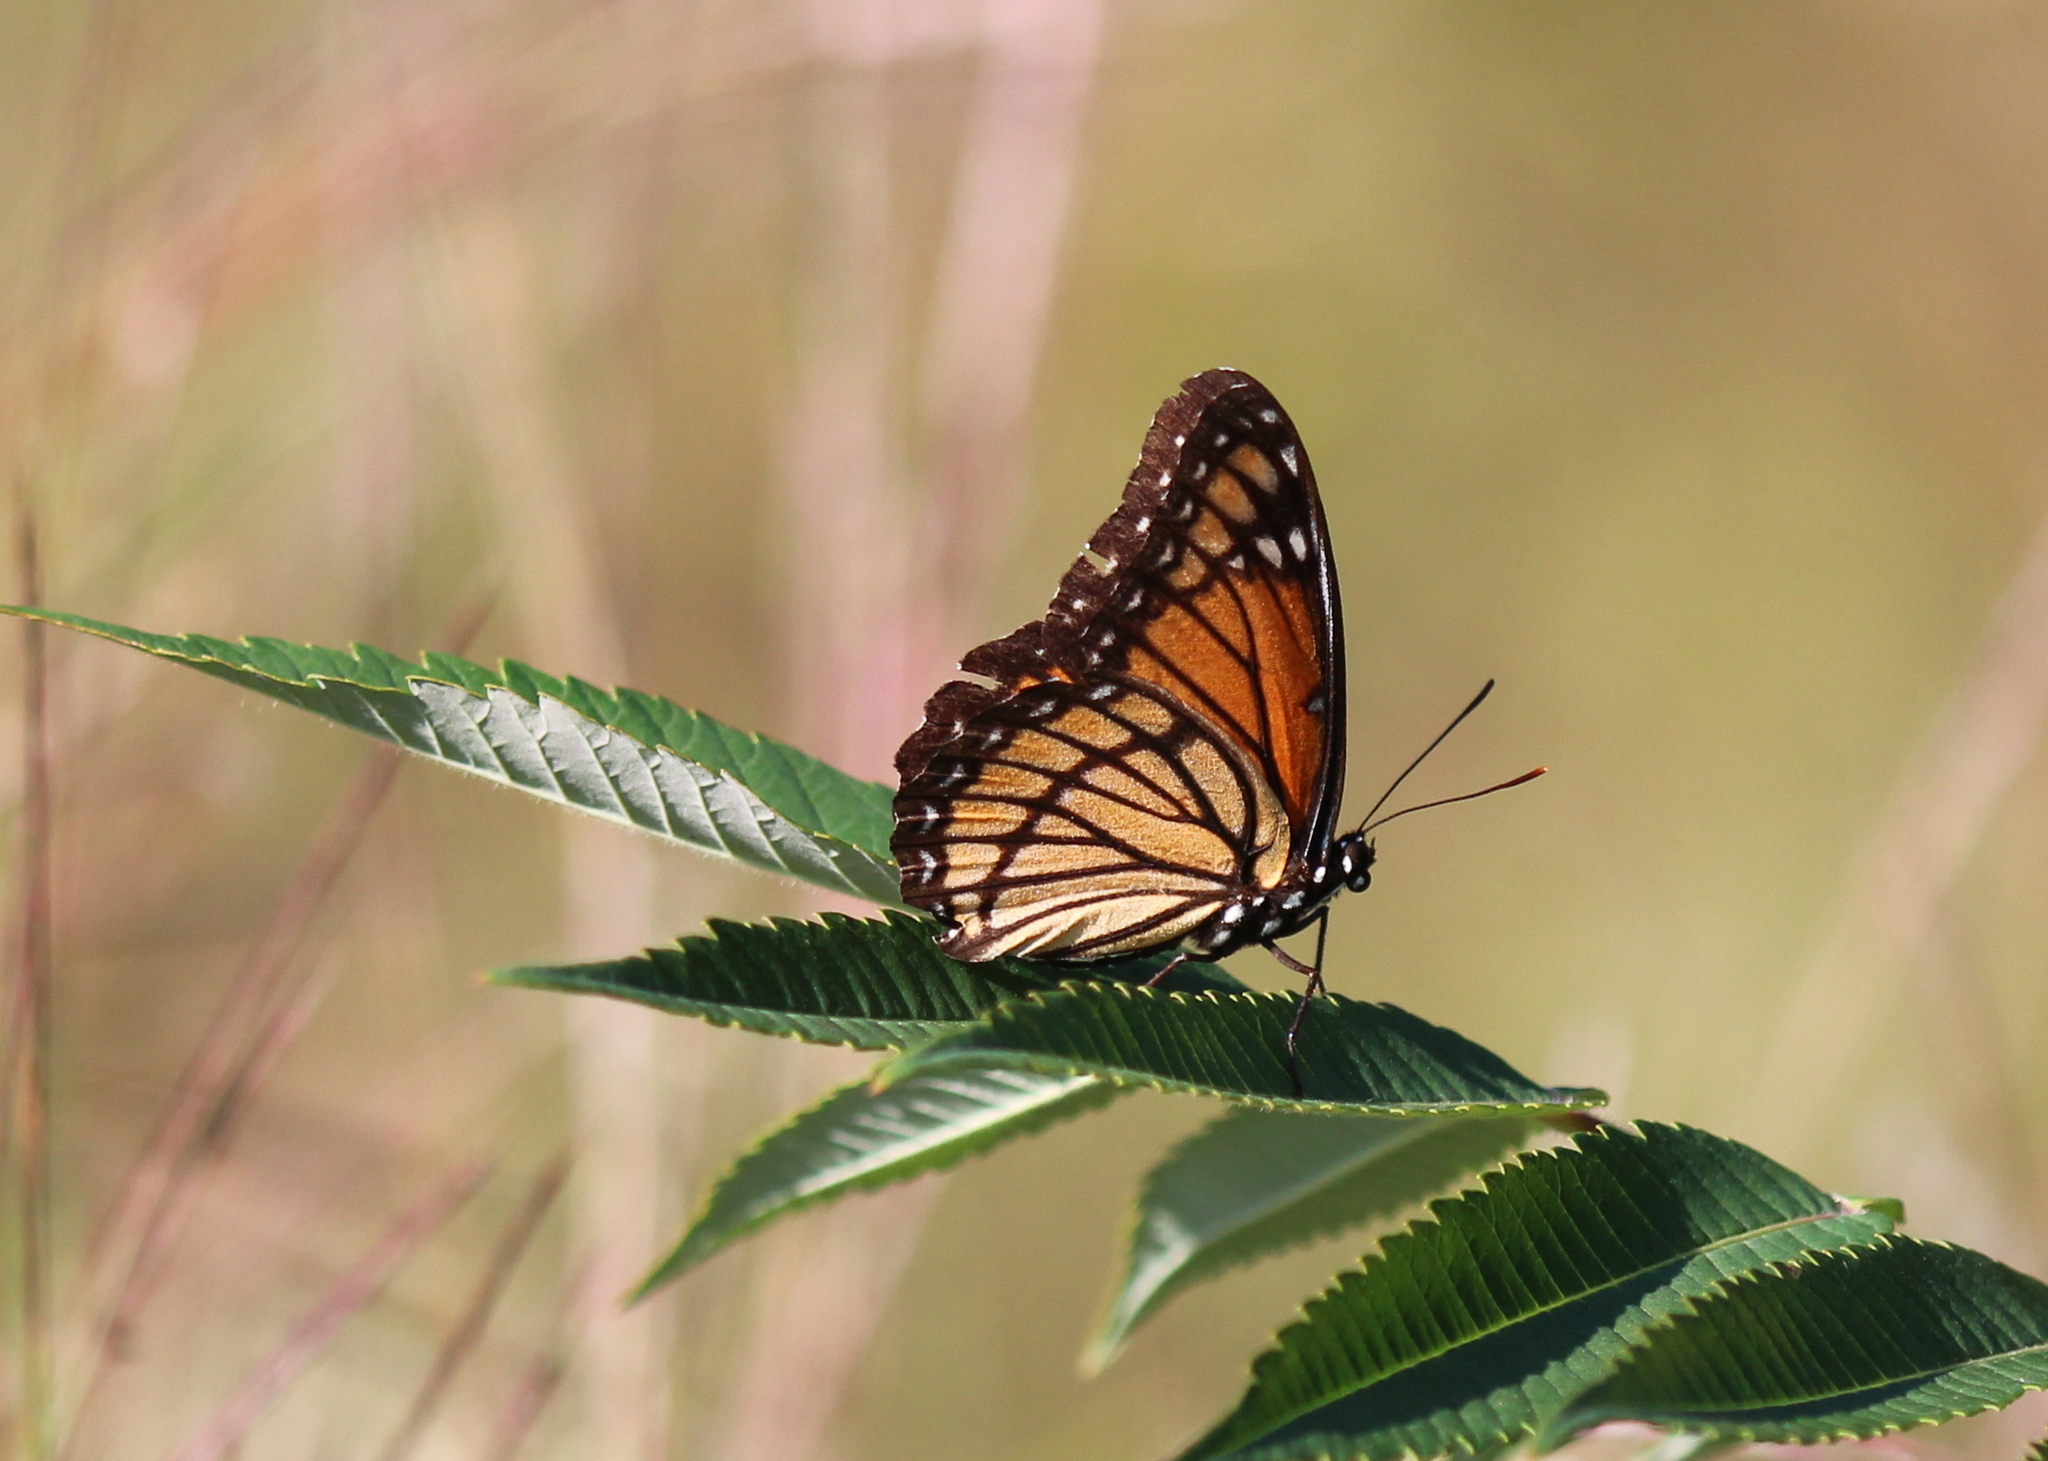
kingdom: Animalia
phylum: Arthropoda
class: Insecta
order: Lepidoptera
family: Nymphalidae
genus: Limenitis
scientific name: Limenitis archippus
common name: Viceroy
